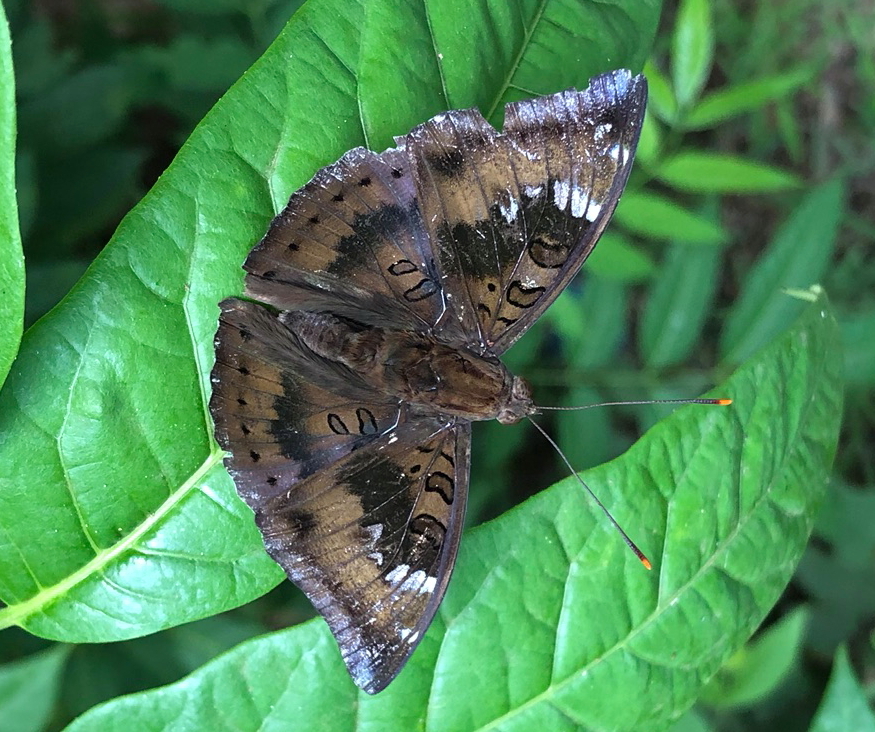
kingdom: Animalia
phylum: Arthropoda
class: Insecta
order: Lepidoptera
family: Nymphalidae
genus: Euthalia
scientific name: Euthalia aconthea
